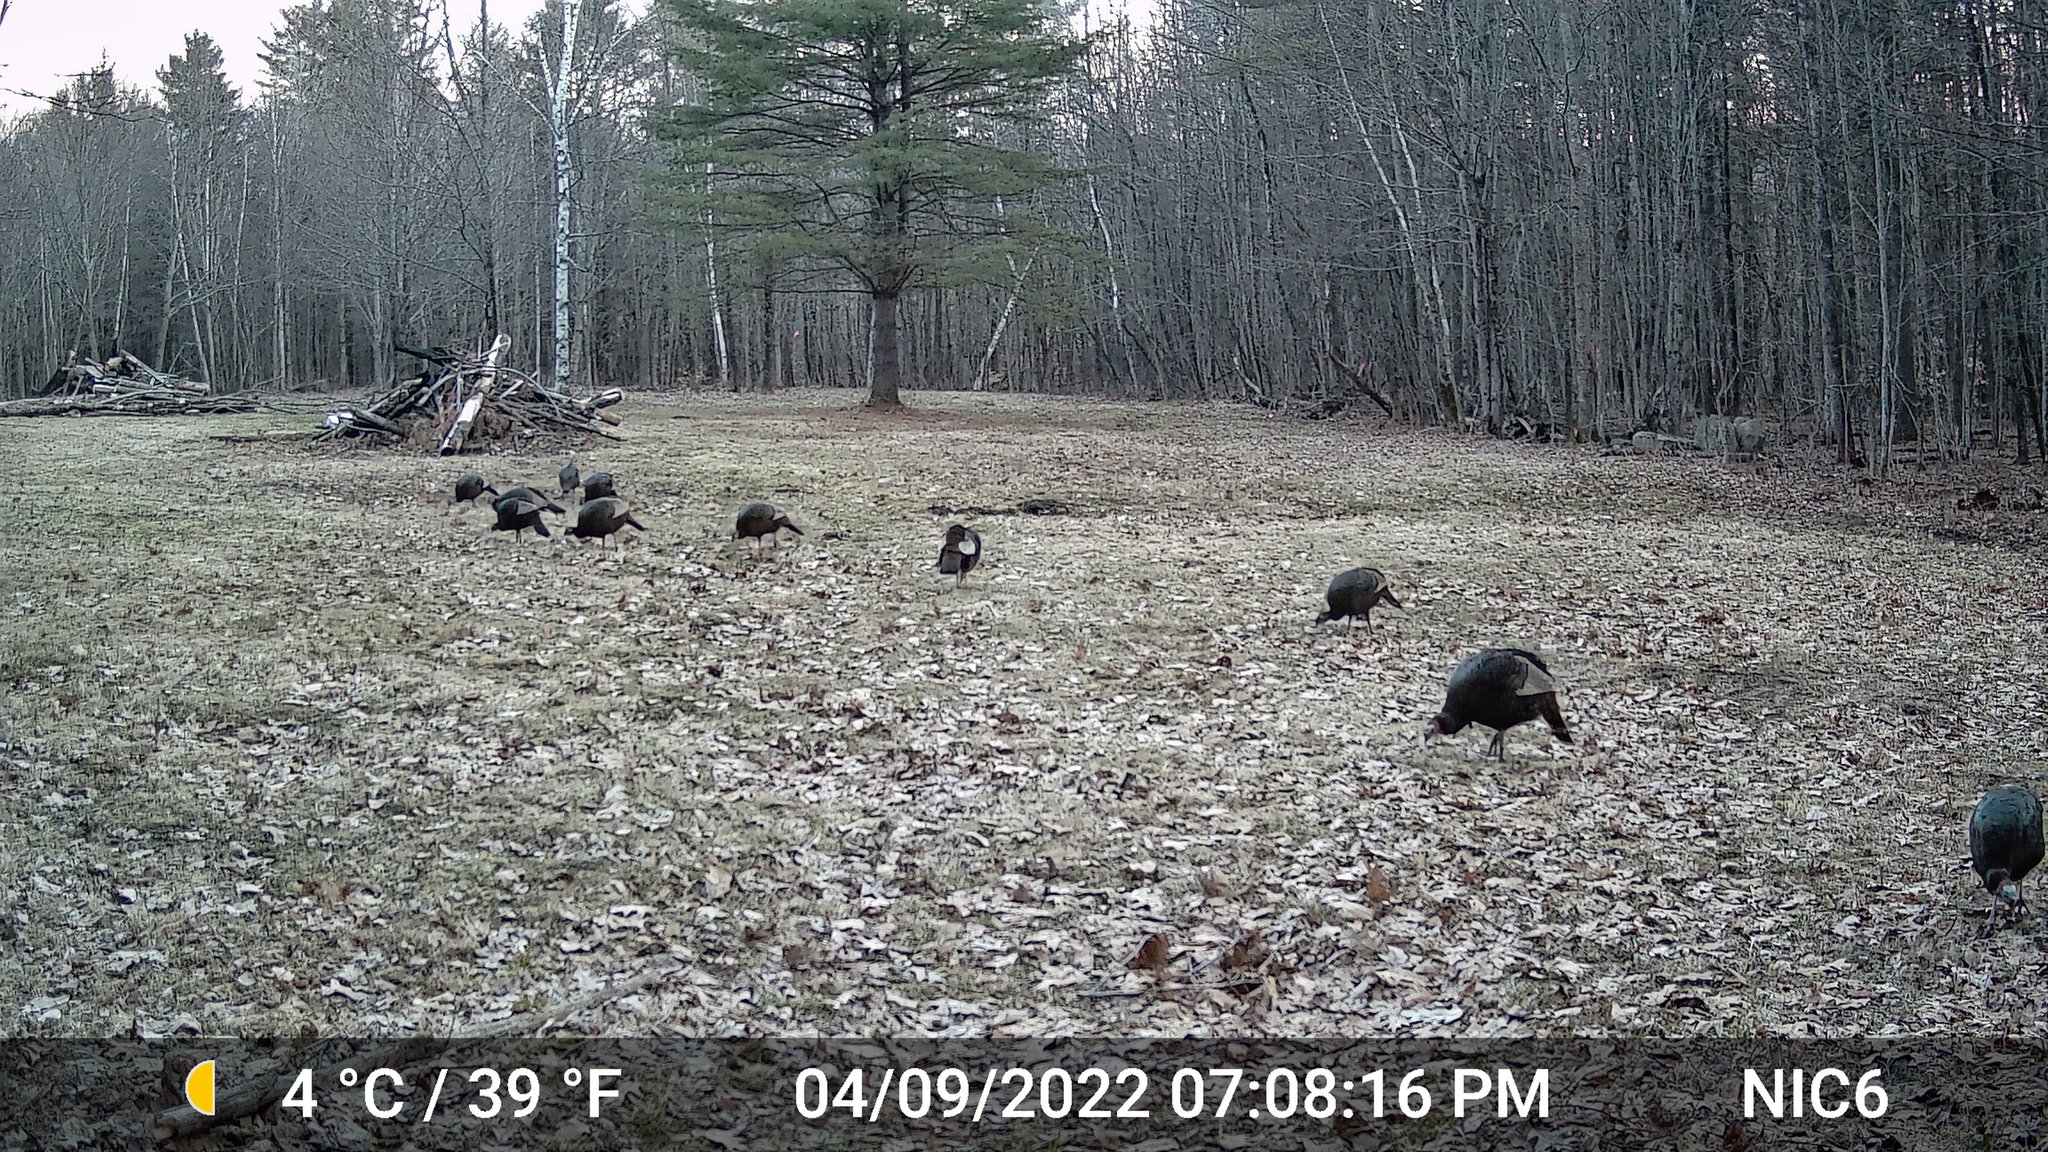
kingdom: Animalia
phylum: Chordata
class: Aves
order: Galliformes
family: Phasianidae
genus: Meleagris
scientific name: Meleagris gallopavo
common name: Wild turkey
